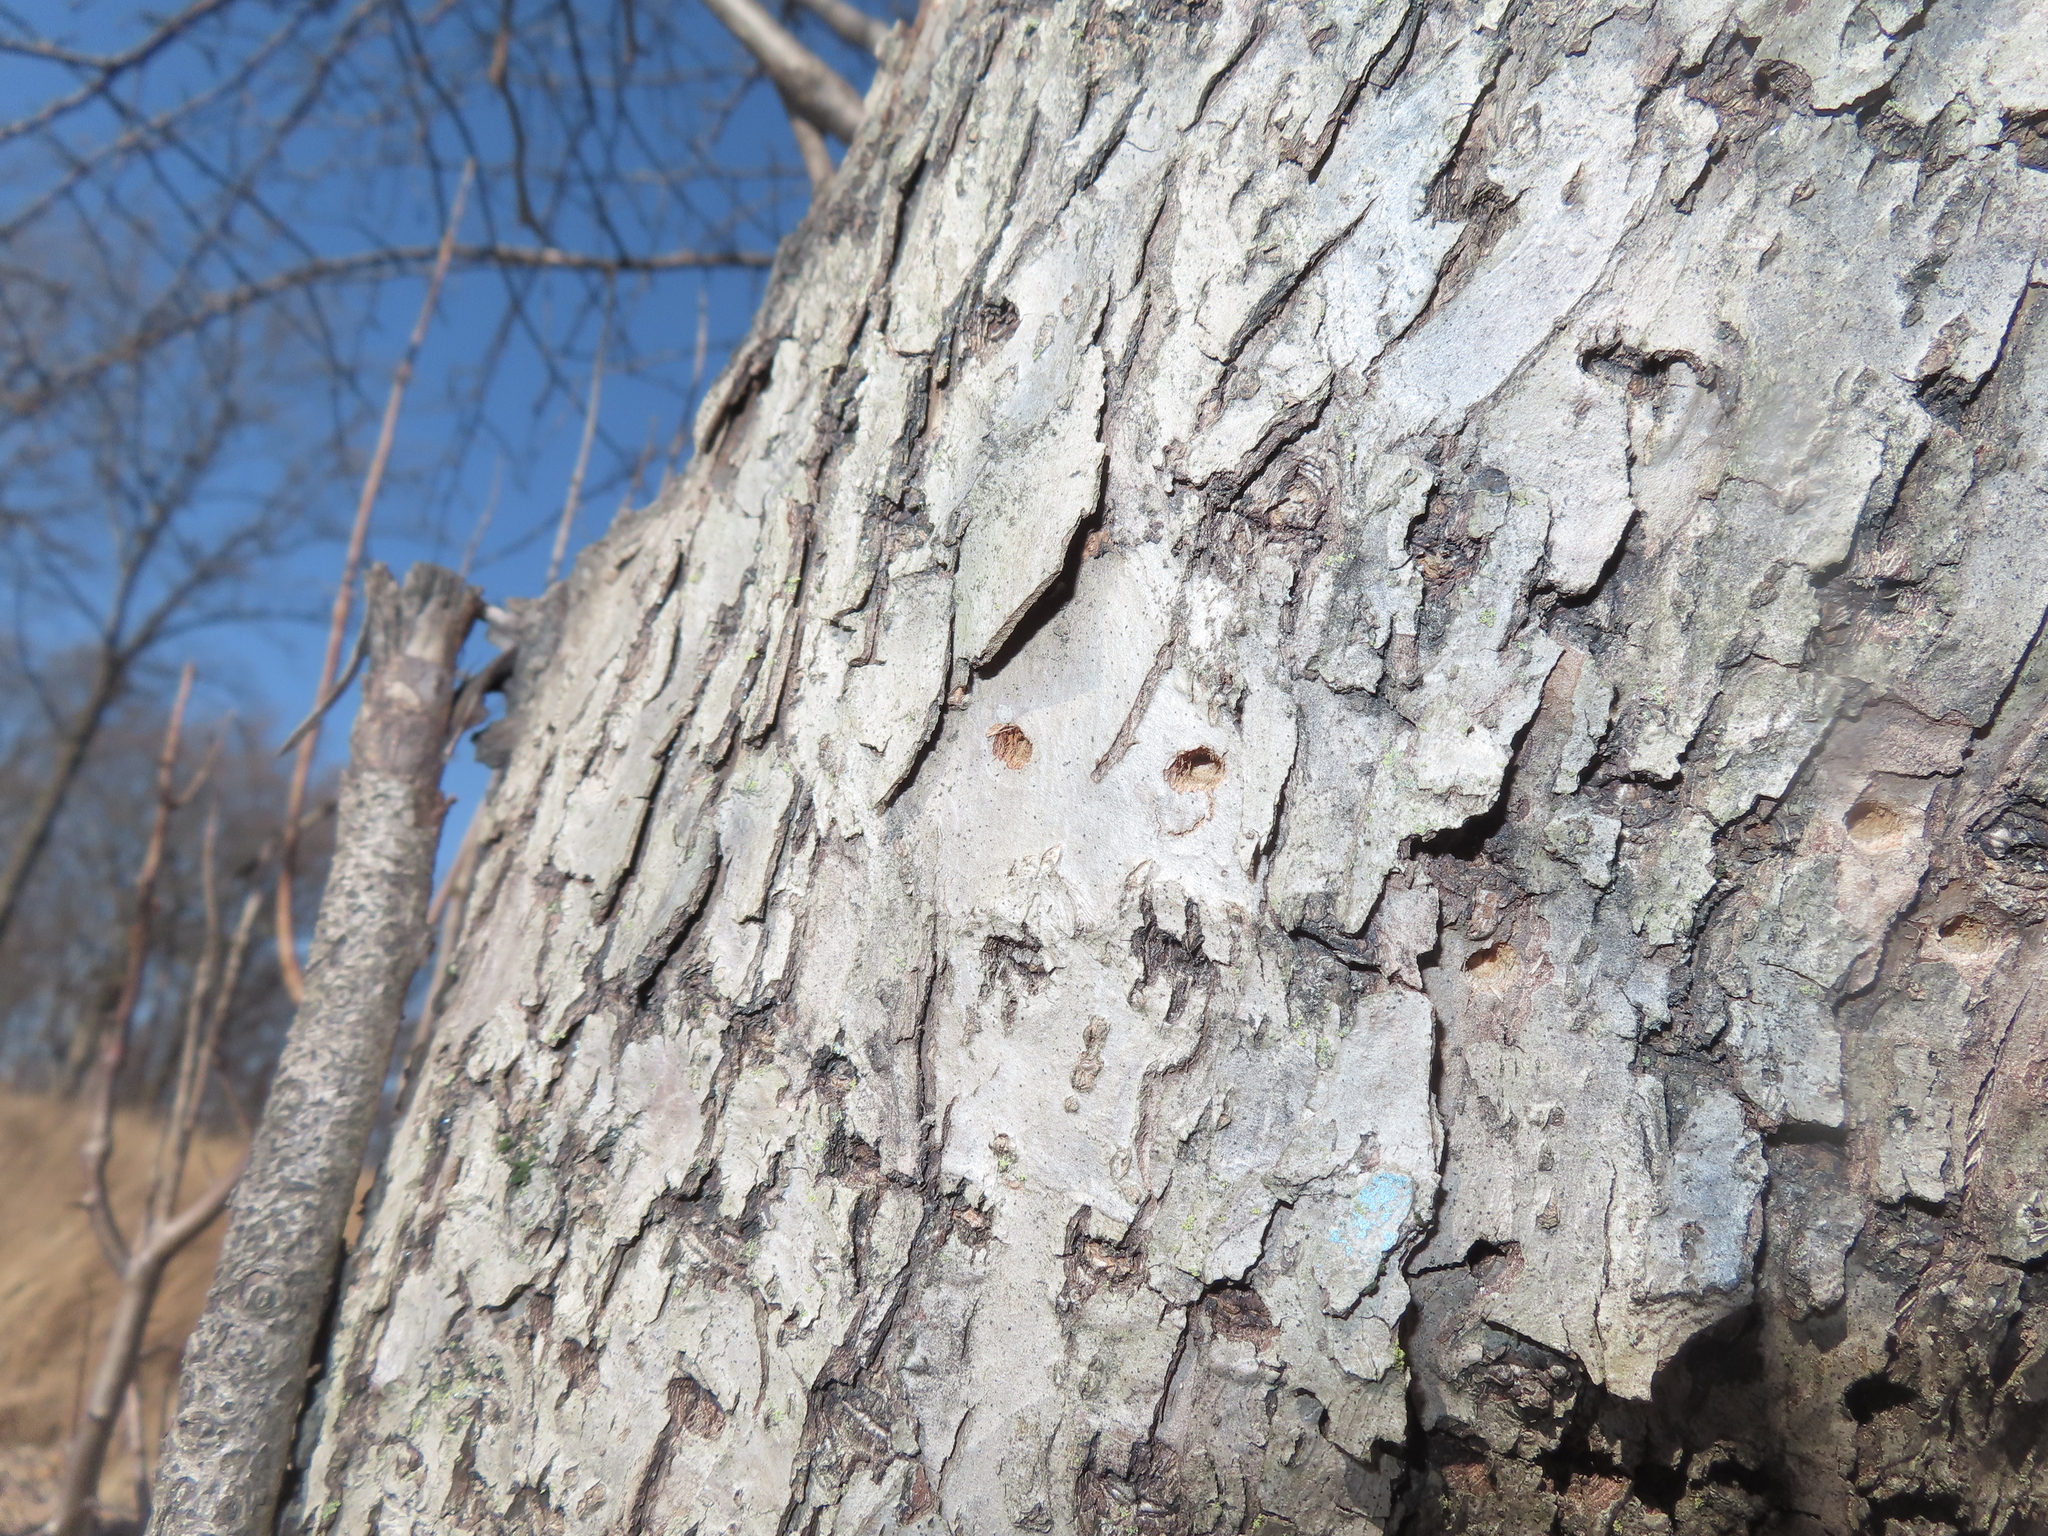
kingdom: Animalia
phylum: Chordata
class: Aves
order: Piciformes
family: Picidae
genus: Sphyrapicus
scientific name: Sphyrapicus varius
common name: Yellow-bellied sapsucker
